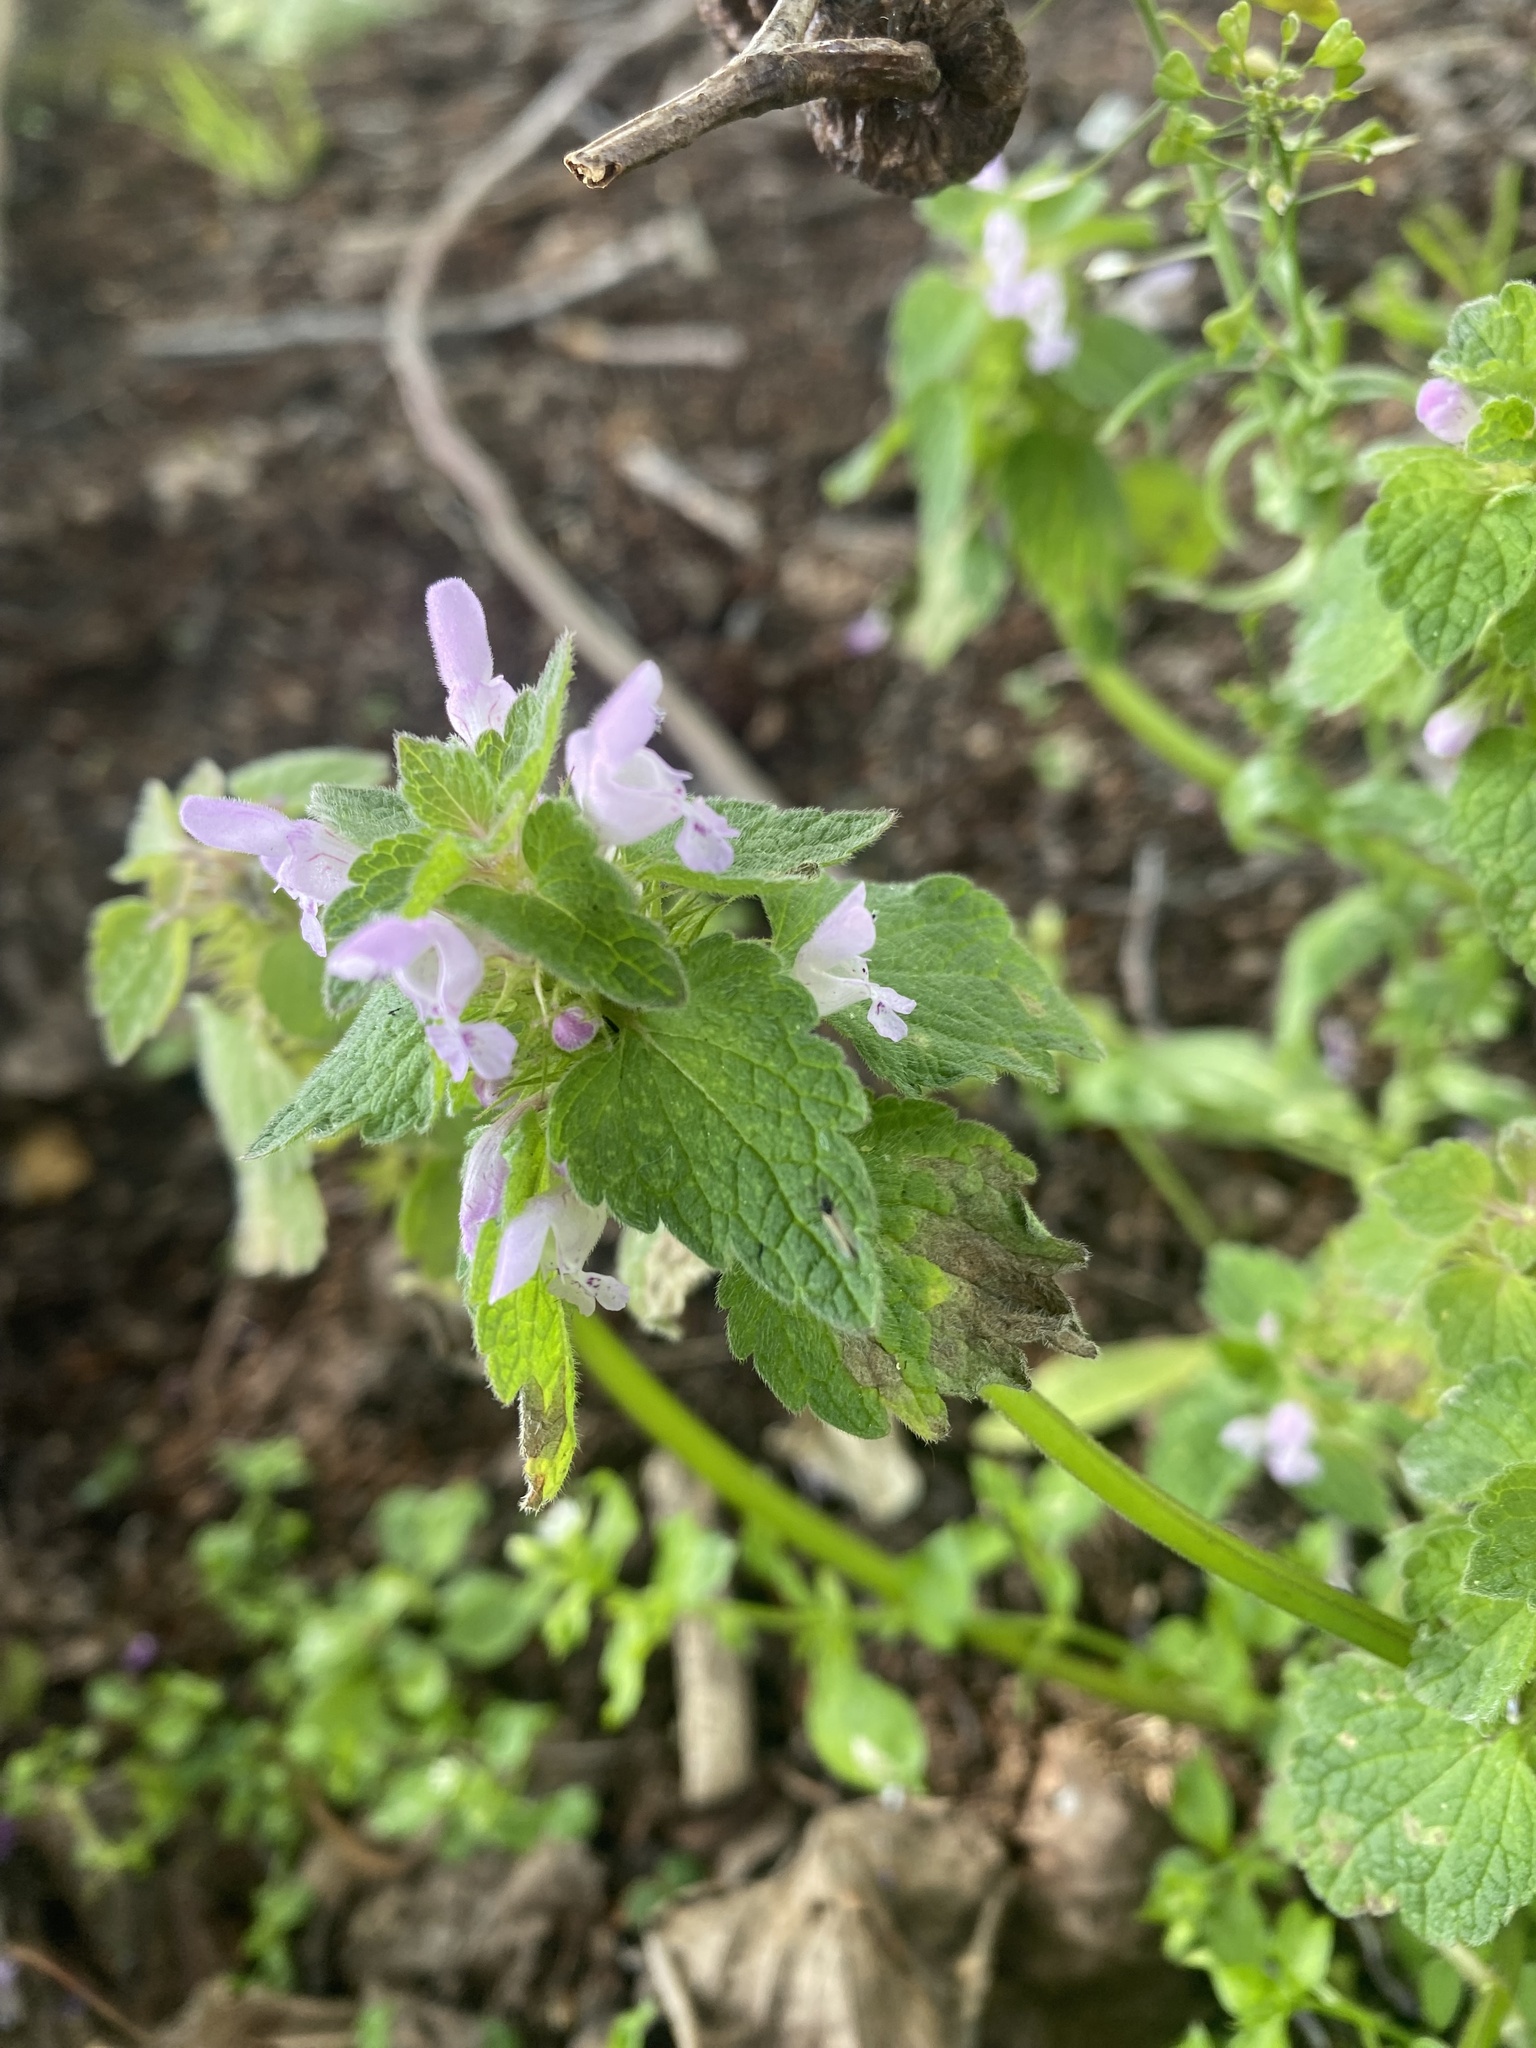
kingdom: Plantae
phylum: Tracheophyta
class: Magnoliopsida
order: Lamiales
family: Lamiaceae
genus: Lamium
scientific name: Lamium purpureum
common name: Red dead-nettle
